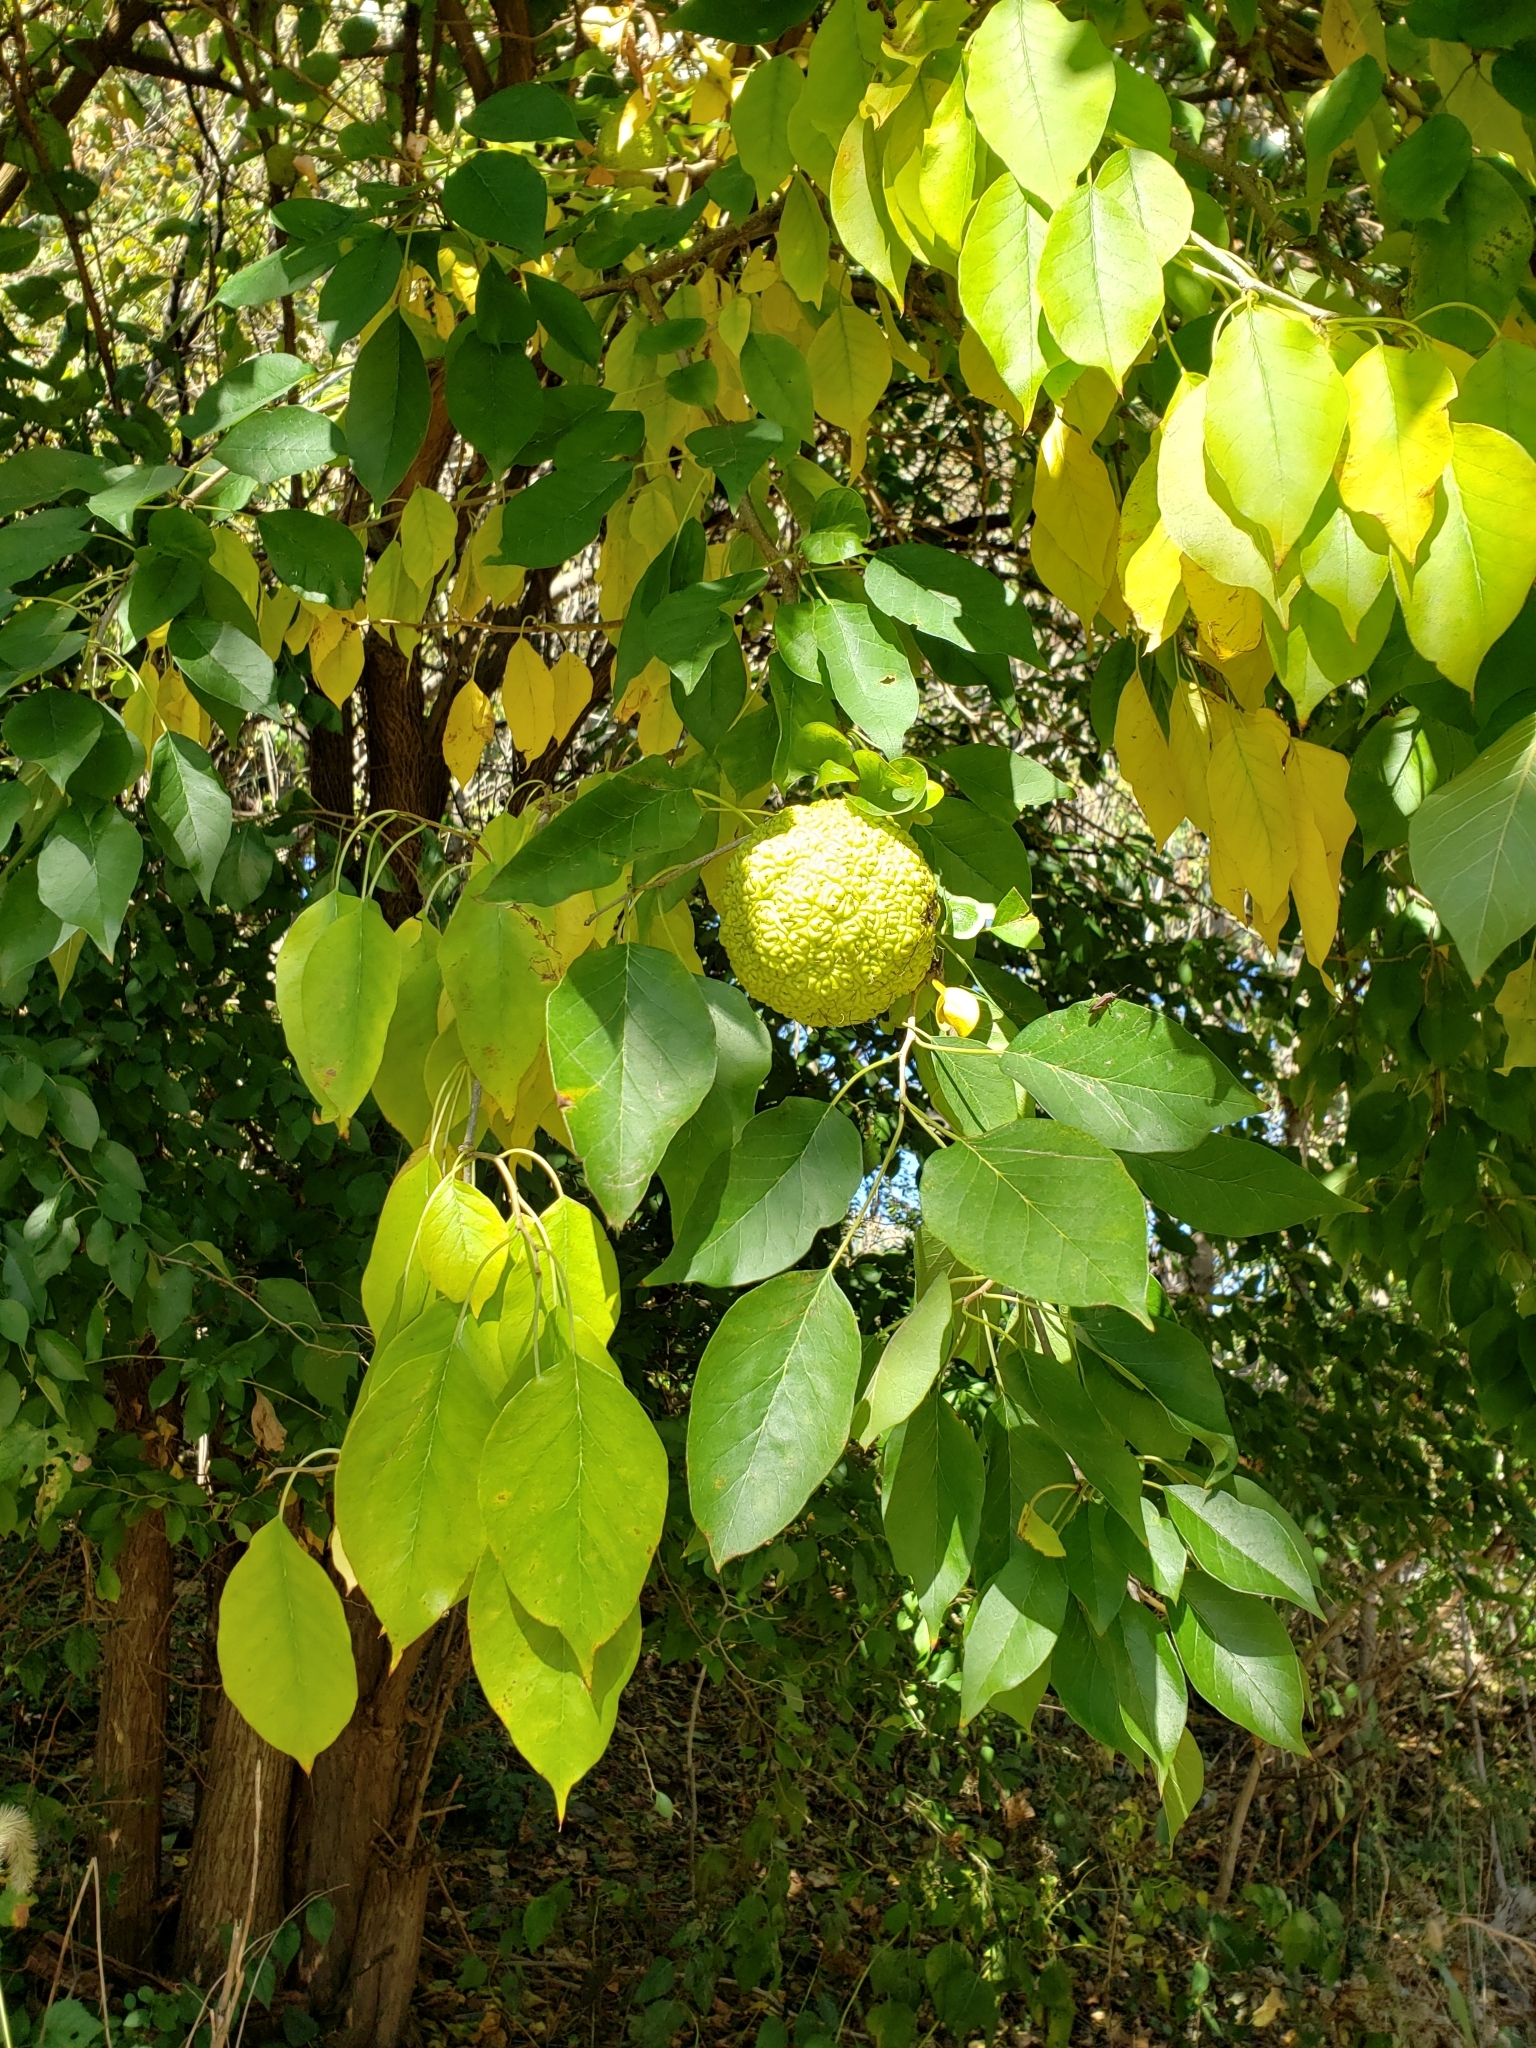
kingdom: Plantae
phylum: Tracheophyta
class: Magnoliopsida
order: Rosales
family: Moraceae
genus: Maclura
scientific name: Maclura pomifera
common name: Osage-orange
